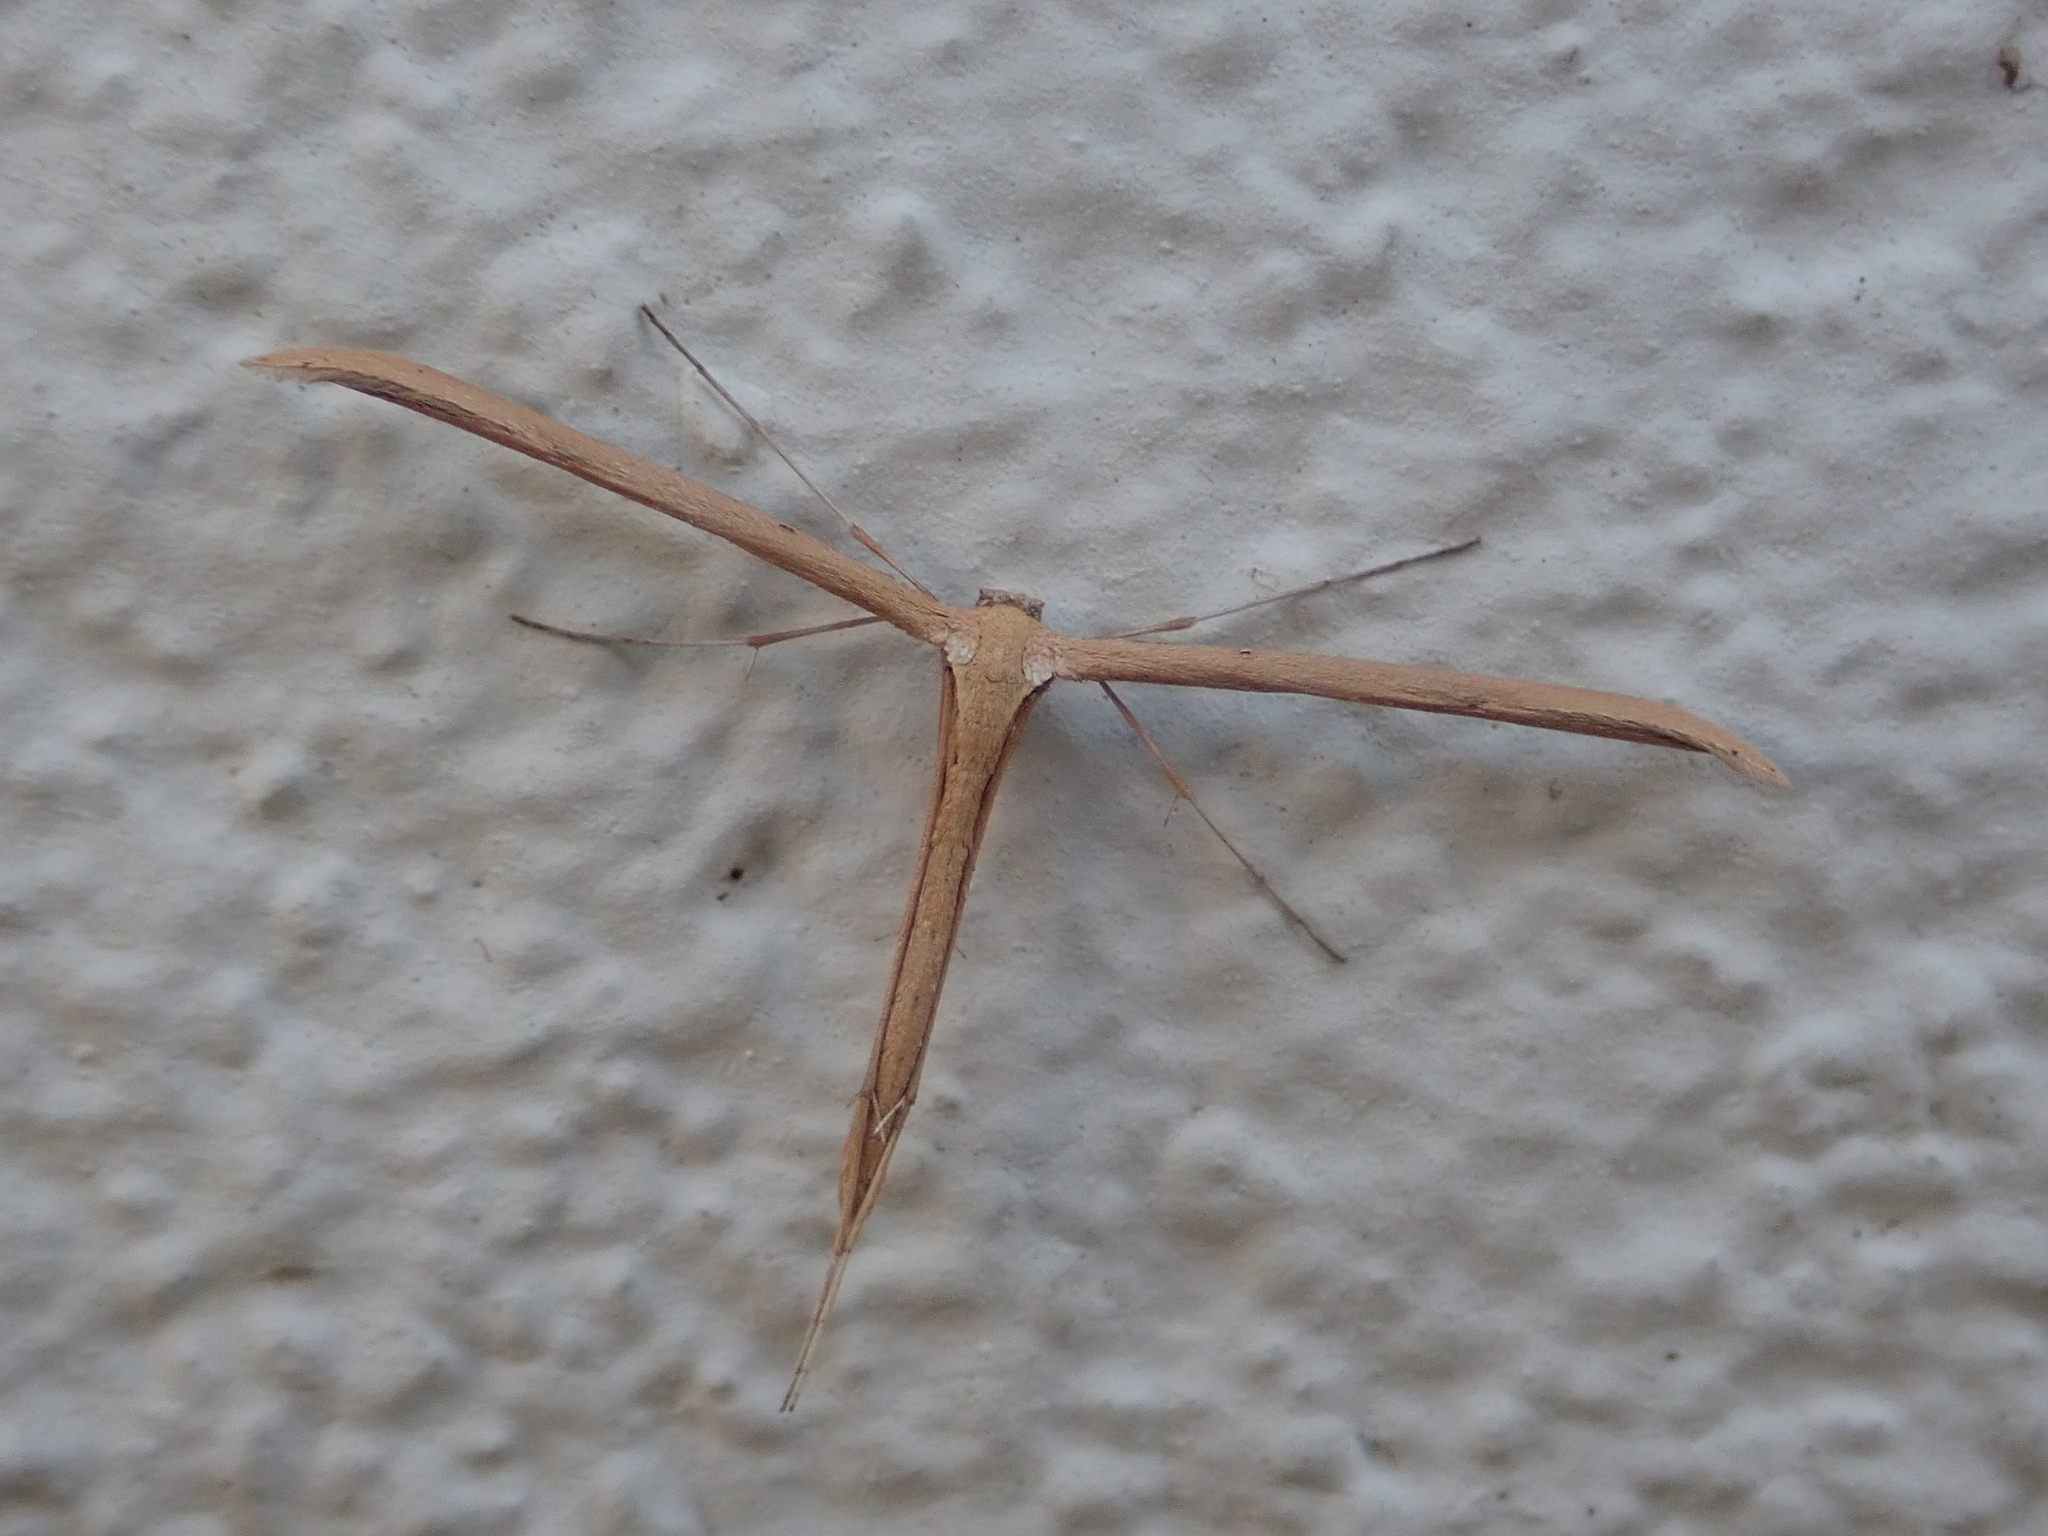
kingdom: Animalia
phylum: Arthropoda
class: Insecta
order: Lepidoptera
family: Pterophoridae
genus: Emmelina
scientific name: Emmelina monodactyla
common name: Common plume
